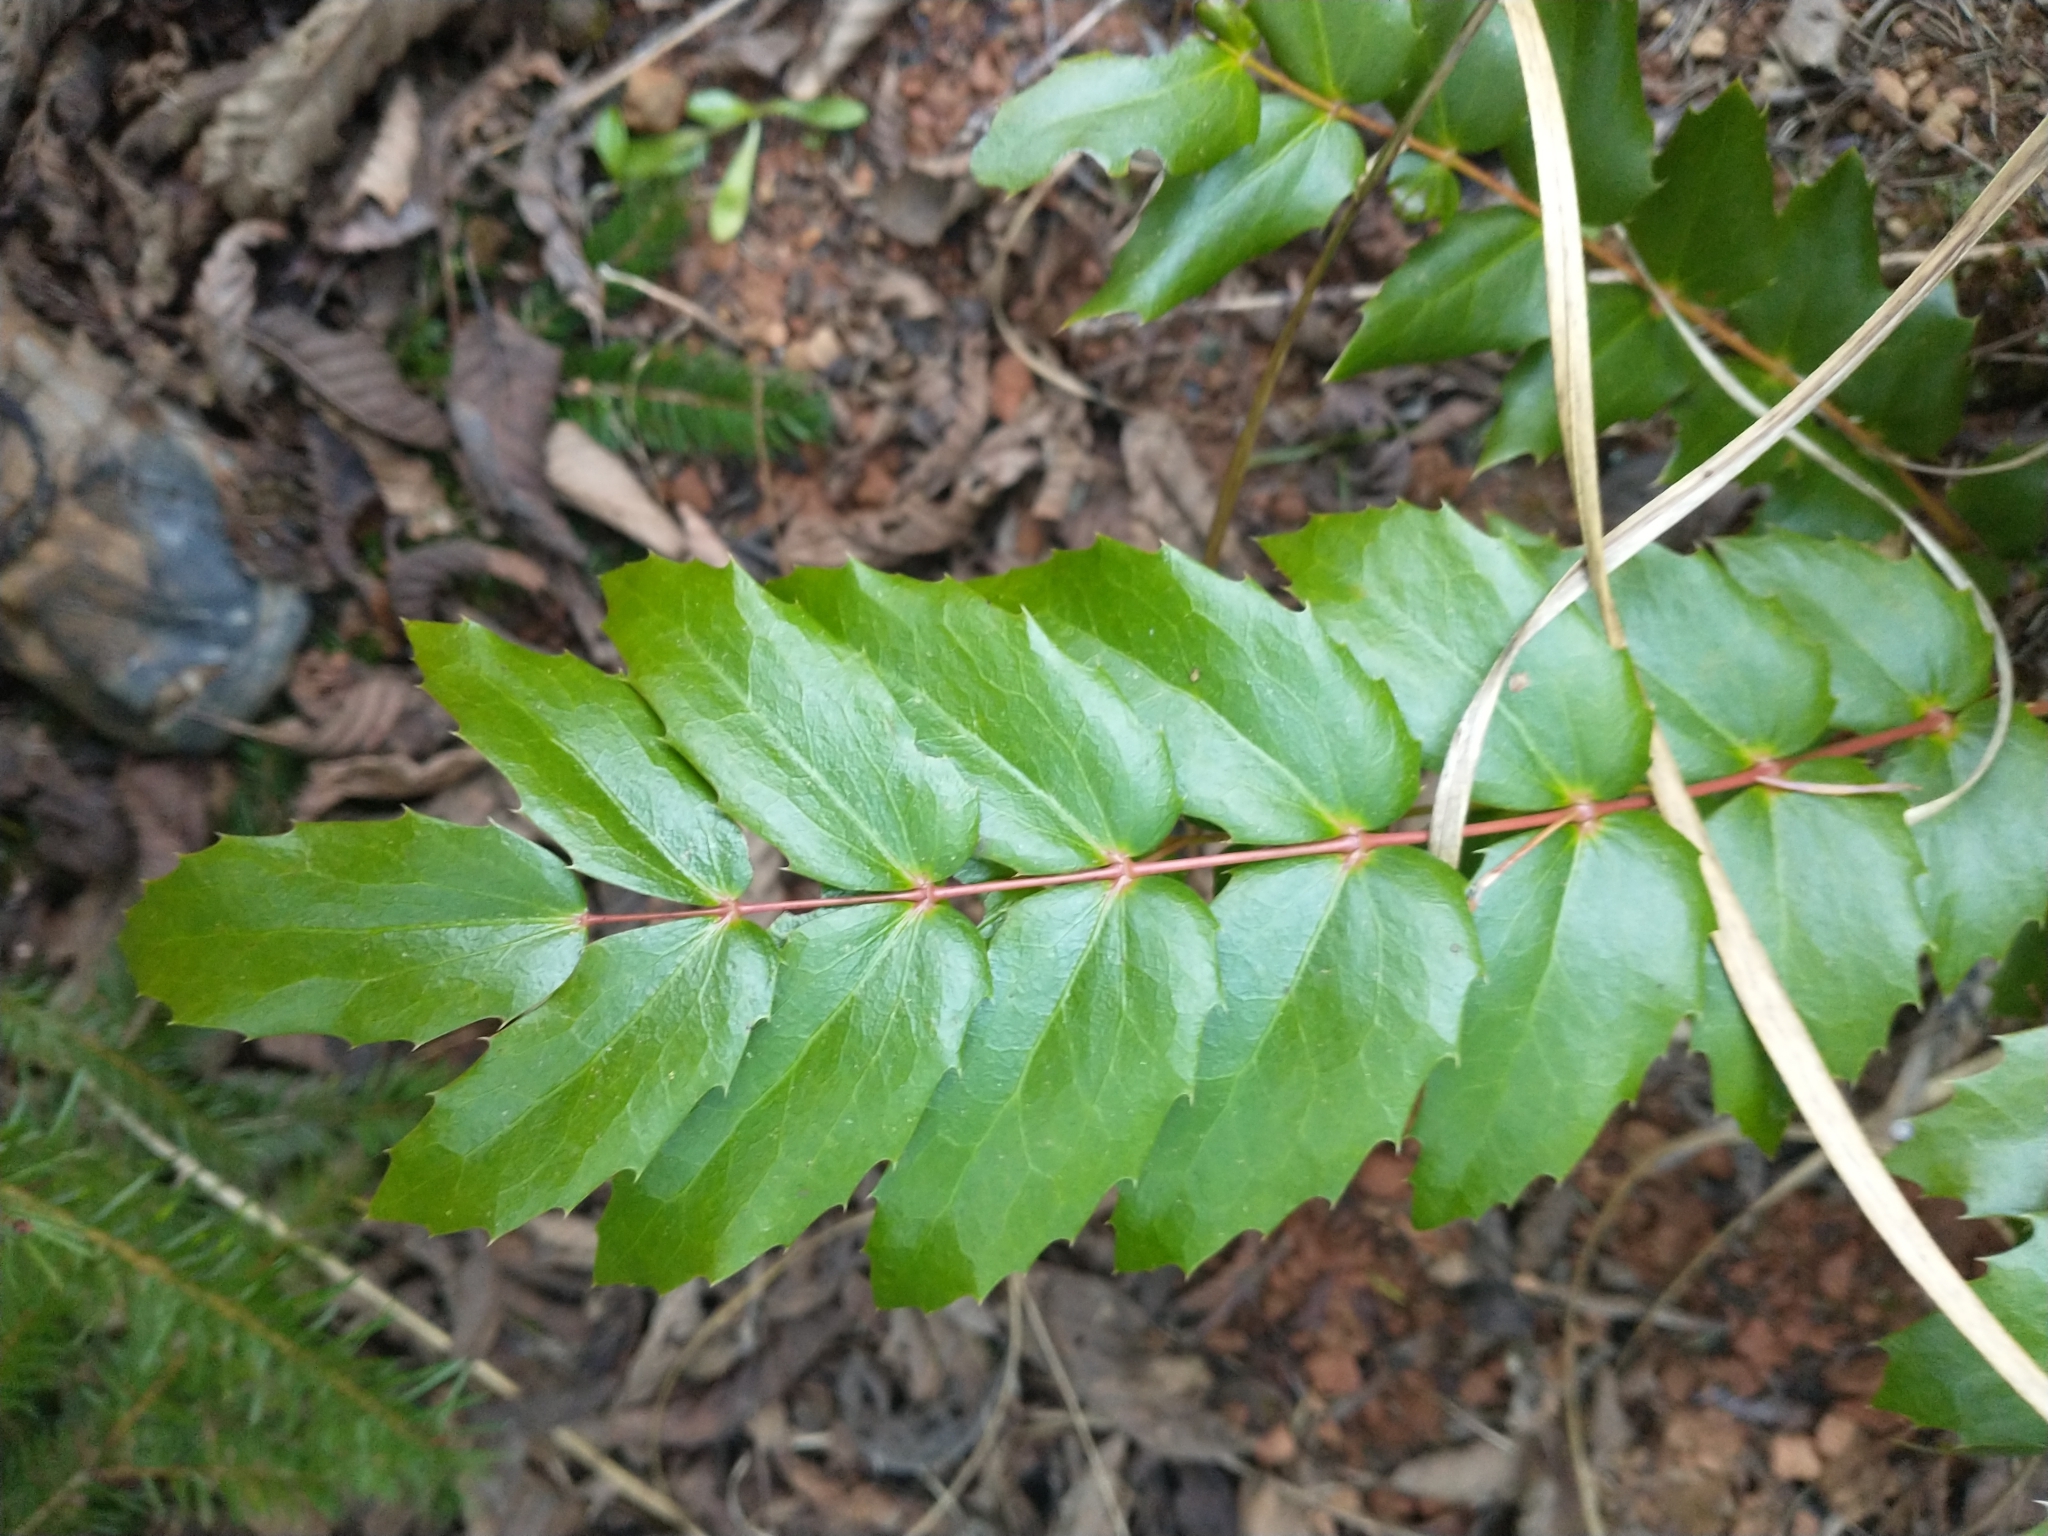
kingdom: Plantae
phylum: Tracheophyta
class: Magnoliopsida
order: Ranunculales
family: Berberidaceae
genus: Mahonia
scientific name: Mahonia nervosa
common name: Cascade oregon-grape
